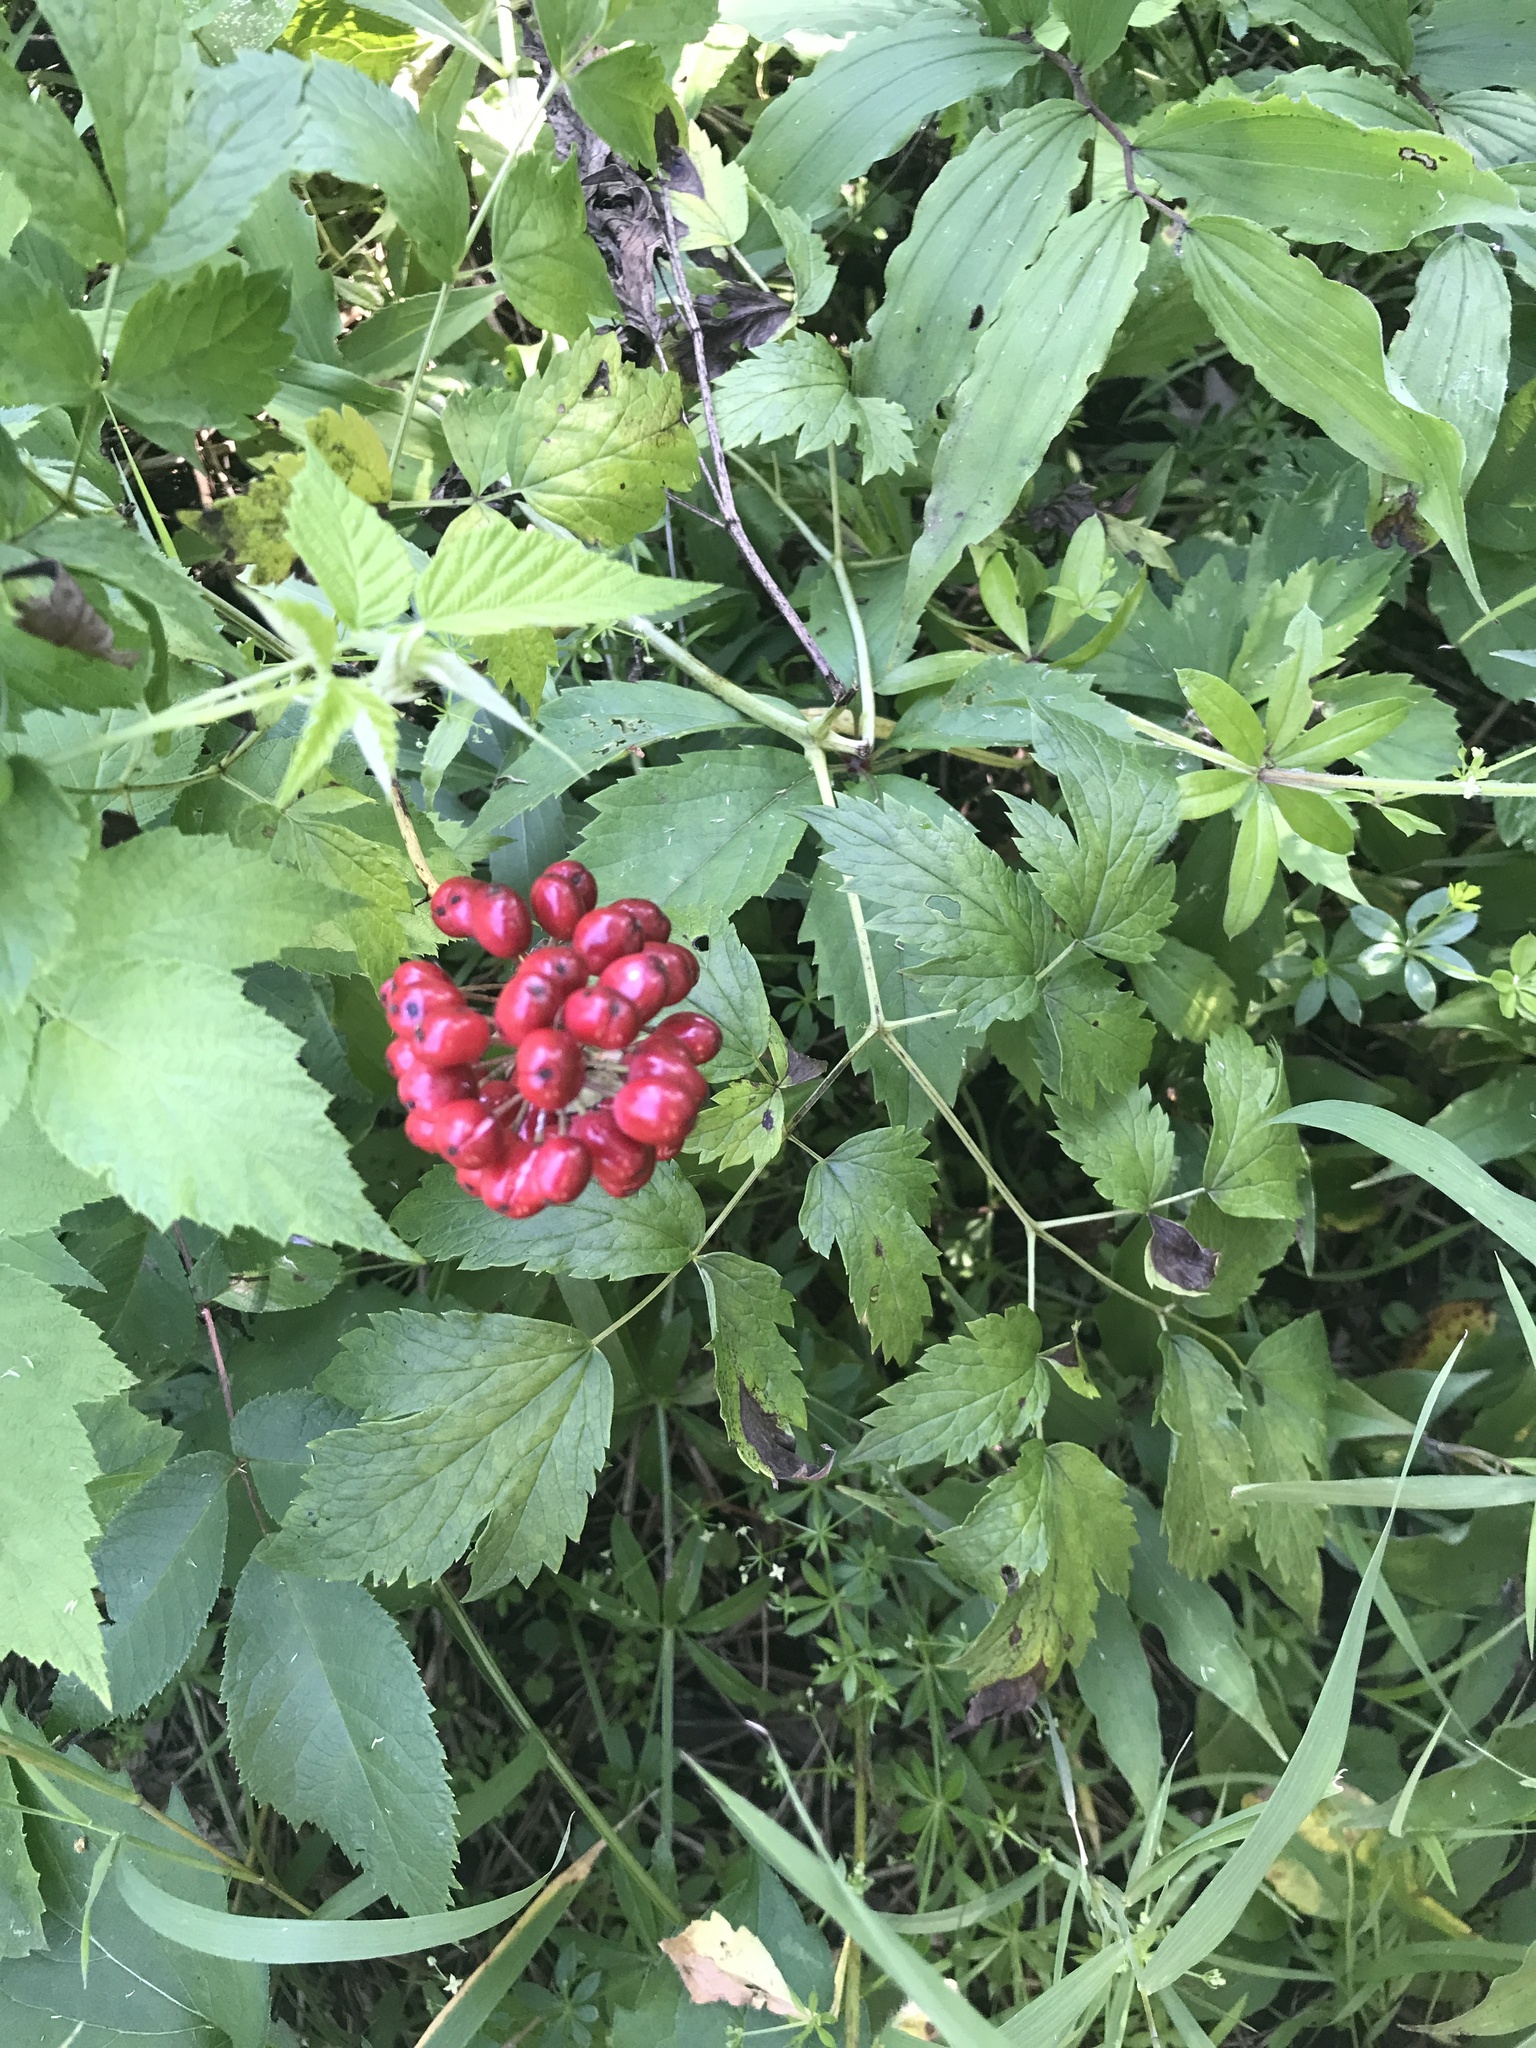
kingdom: Plantae
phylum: Tracheophyta
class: Magnoliopsida
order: Ranunculales
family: Ranunculaceae
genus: Actaea
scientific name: Actaea rubra
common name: Red baneberry
